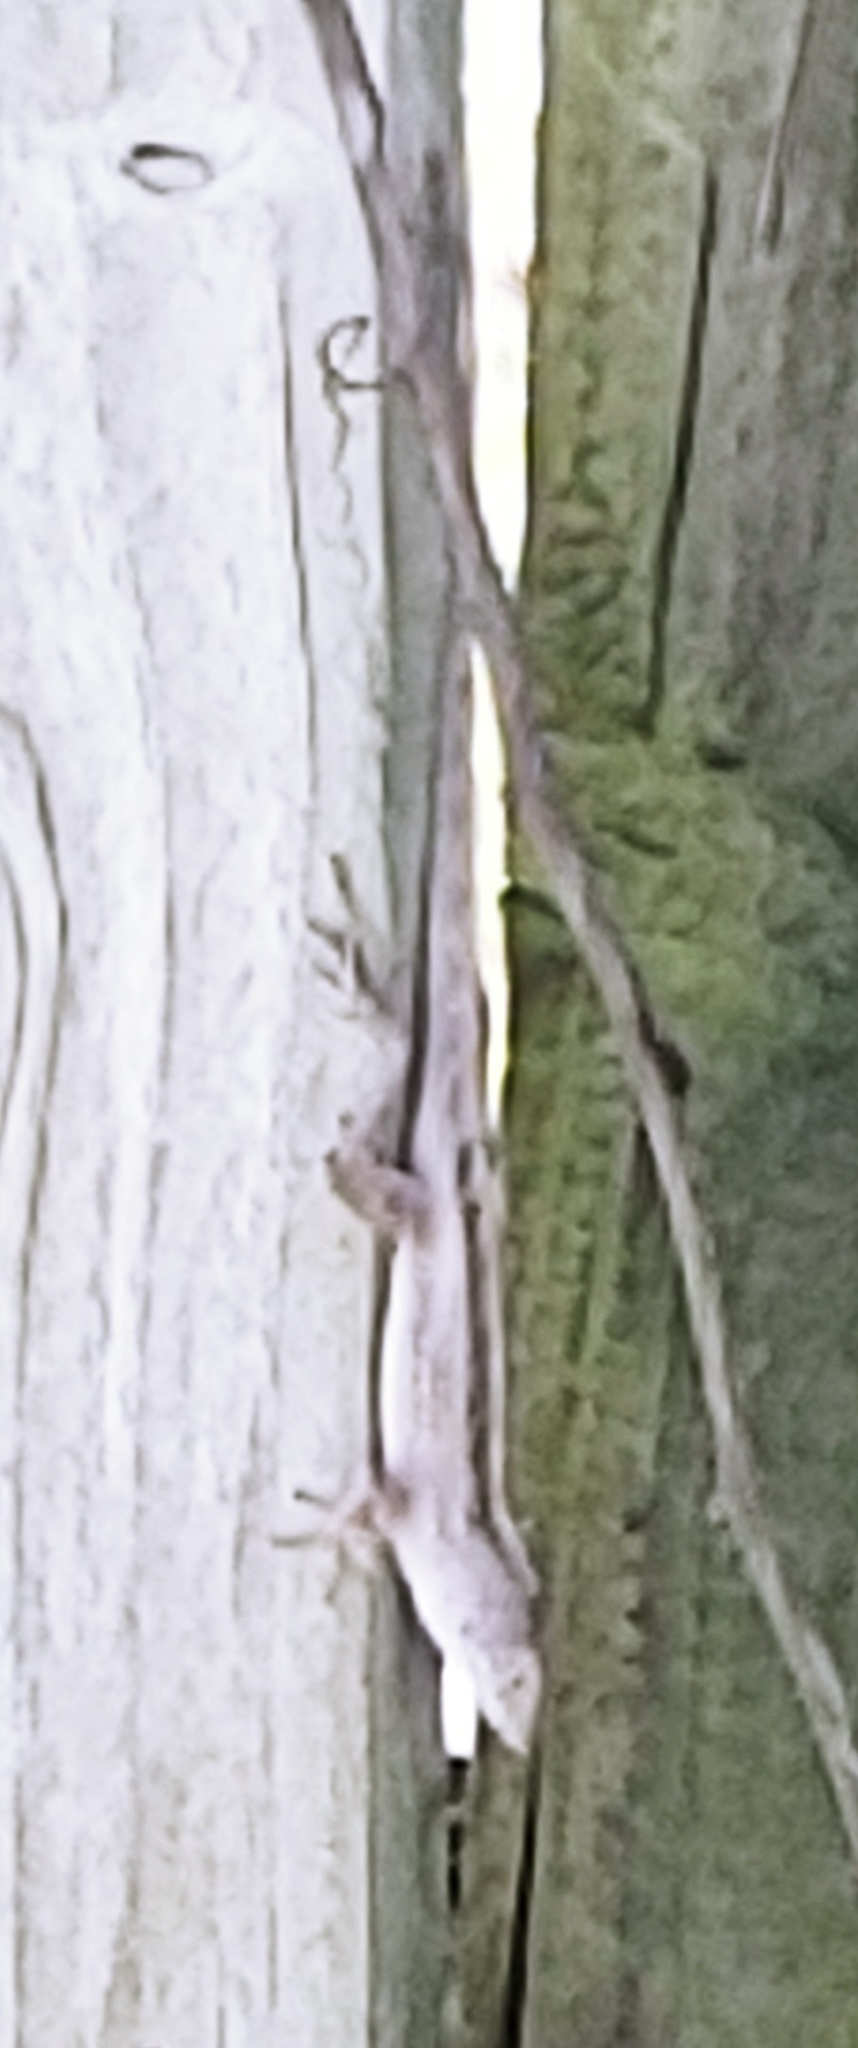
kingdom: Animalia
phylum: Chordata
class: Squamata
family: Dactyloidae
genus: Anolis
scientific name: Anolis sagrei
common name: Brown anole
